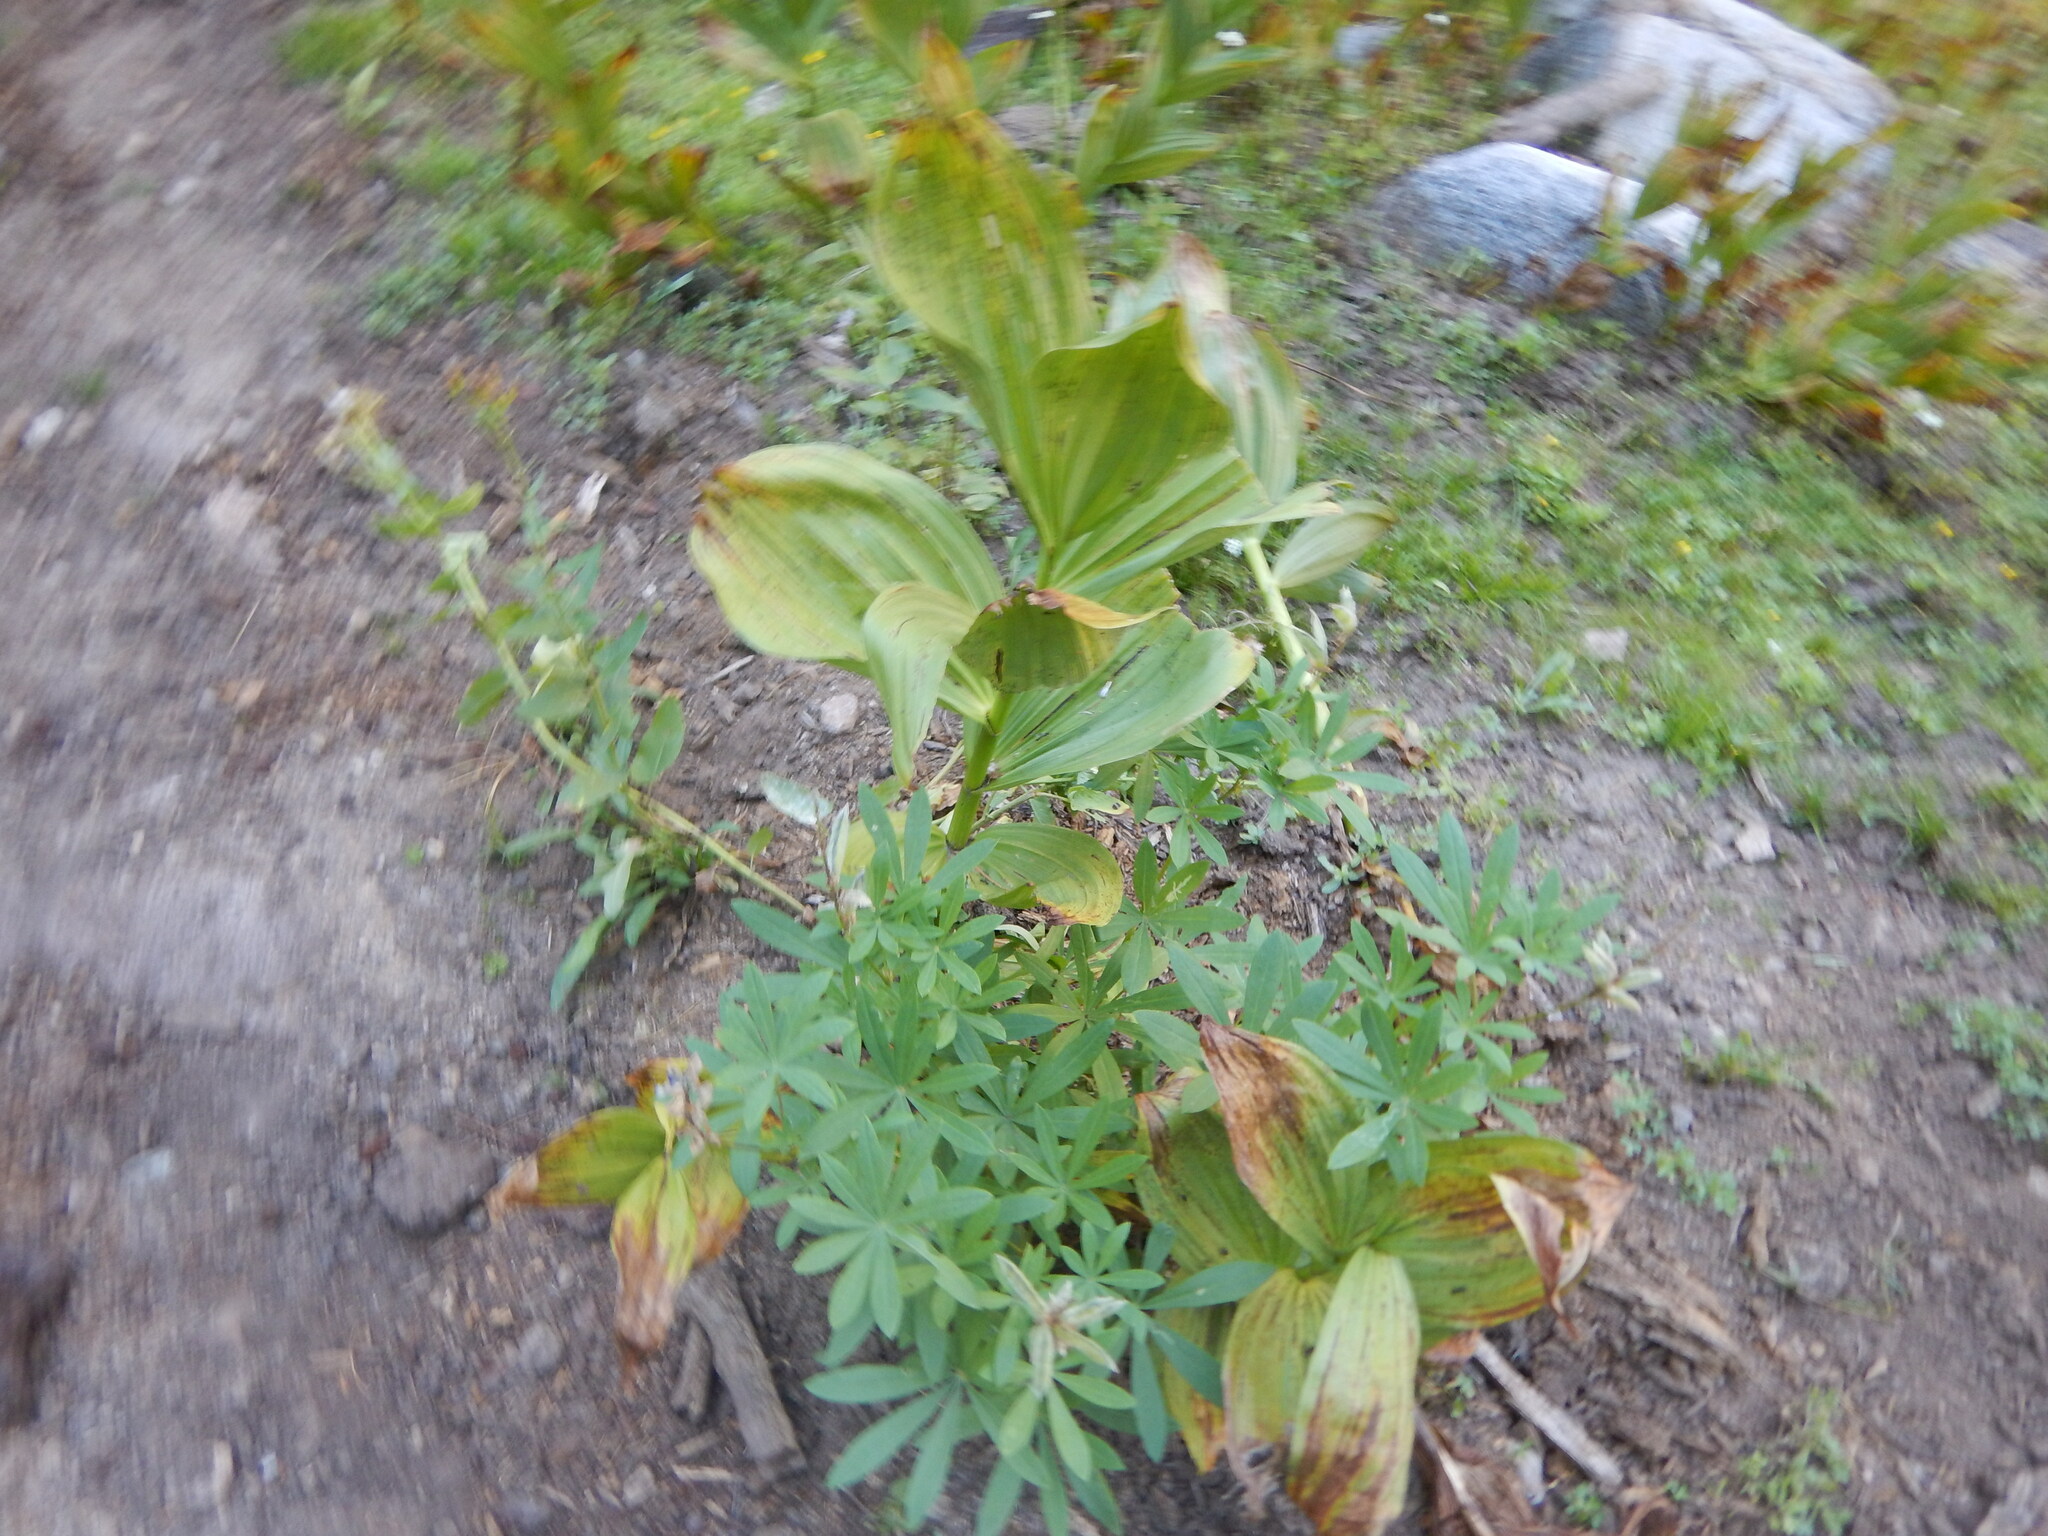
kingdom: Plantae
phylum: Tracheophyta
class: Liliopsida
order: Liliales
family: Melanthiaceae
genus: Veratrum
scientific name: Veratrum californicum
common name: California veratrum
